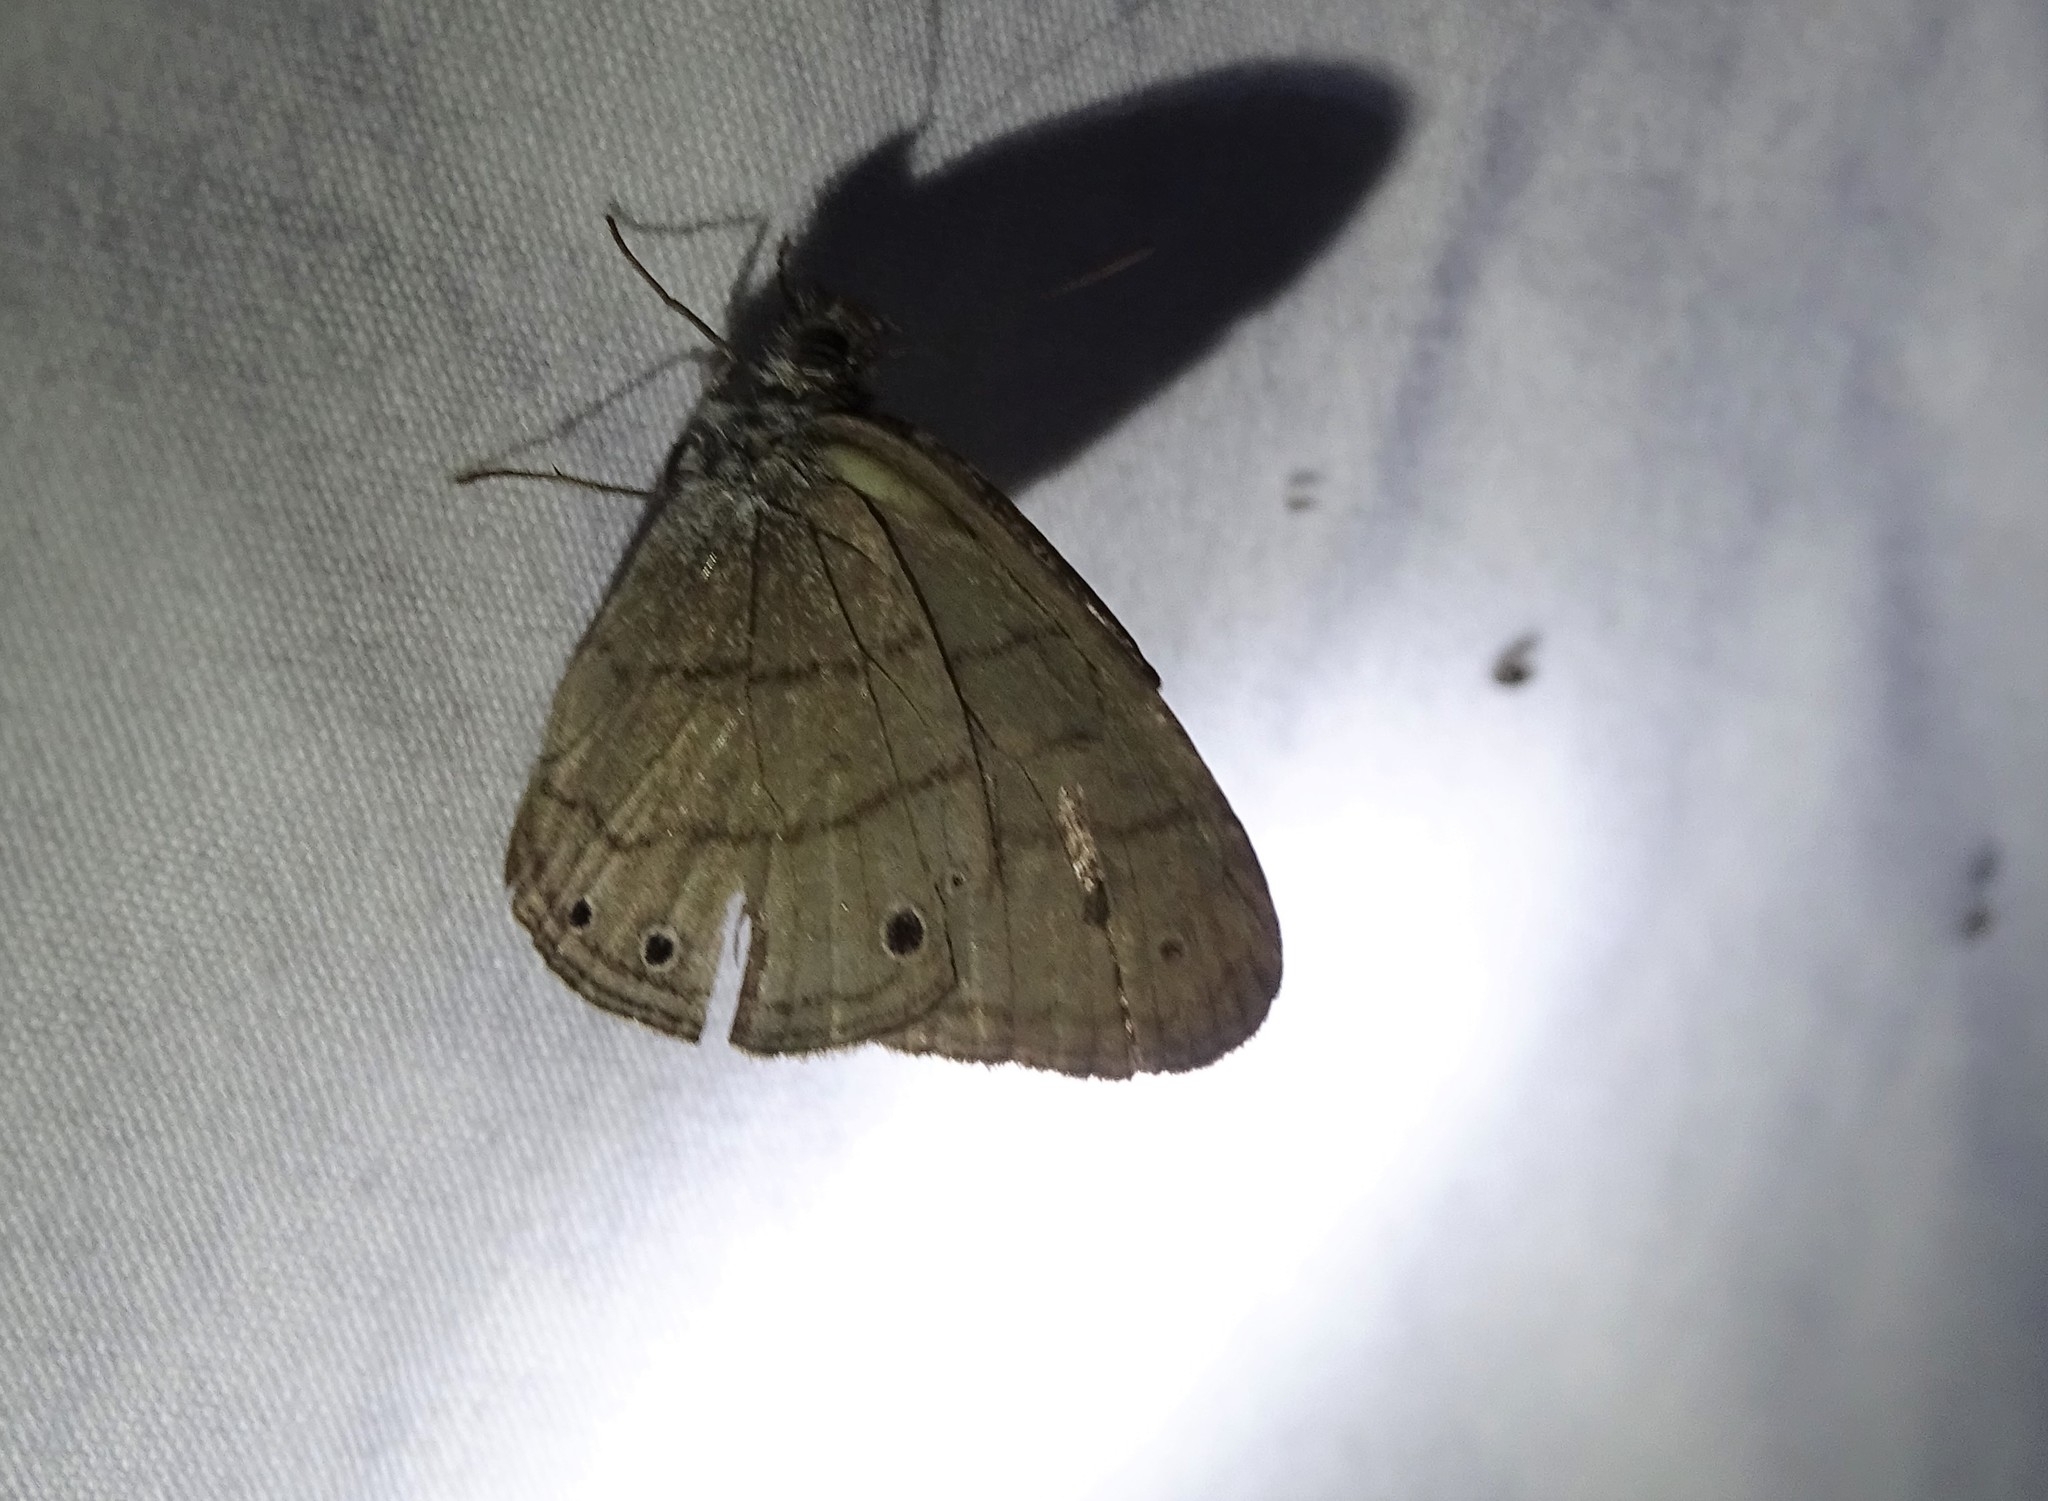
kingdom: Animalia
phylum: Arthropoda
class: Insecta
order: Lepidoptera
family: Nymphalidae
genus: Hermeuptychia
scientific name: Hermeuptychia intricata
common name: Intricate satyr
